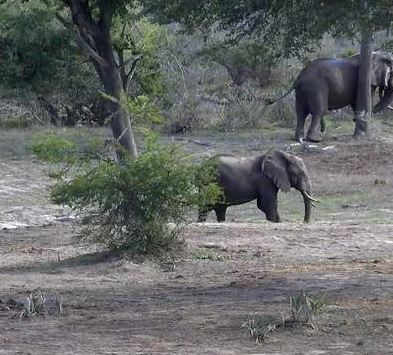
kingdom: Animalia
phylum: Chordata
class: Mammalia
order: Proboscidea
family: Elephantidae
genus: Loxodonta
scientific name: Loxodonta africana
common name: African elephant
